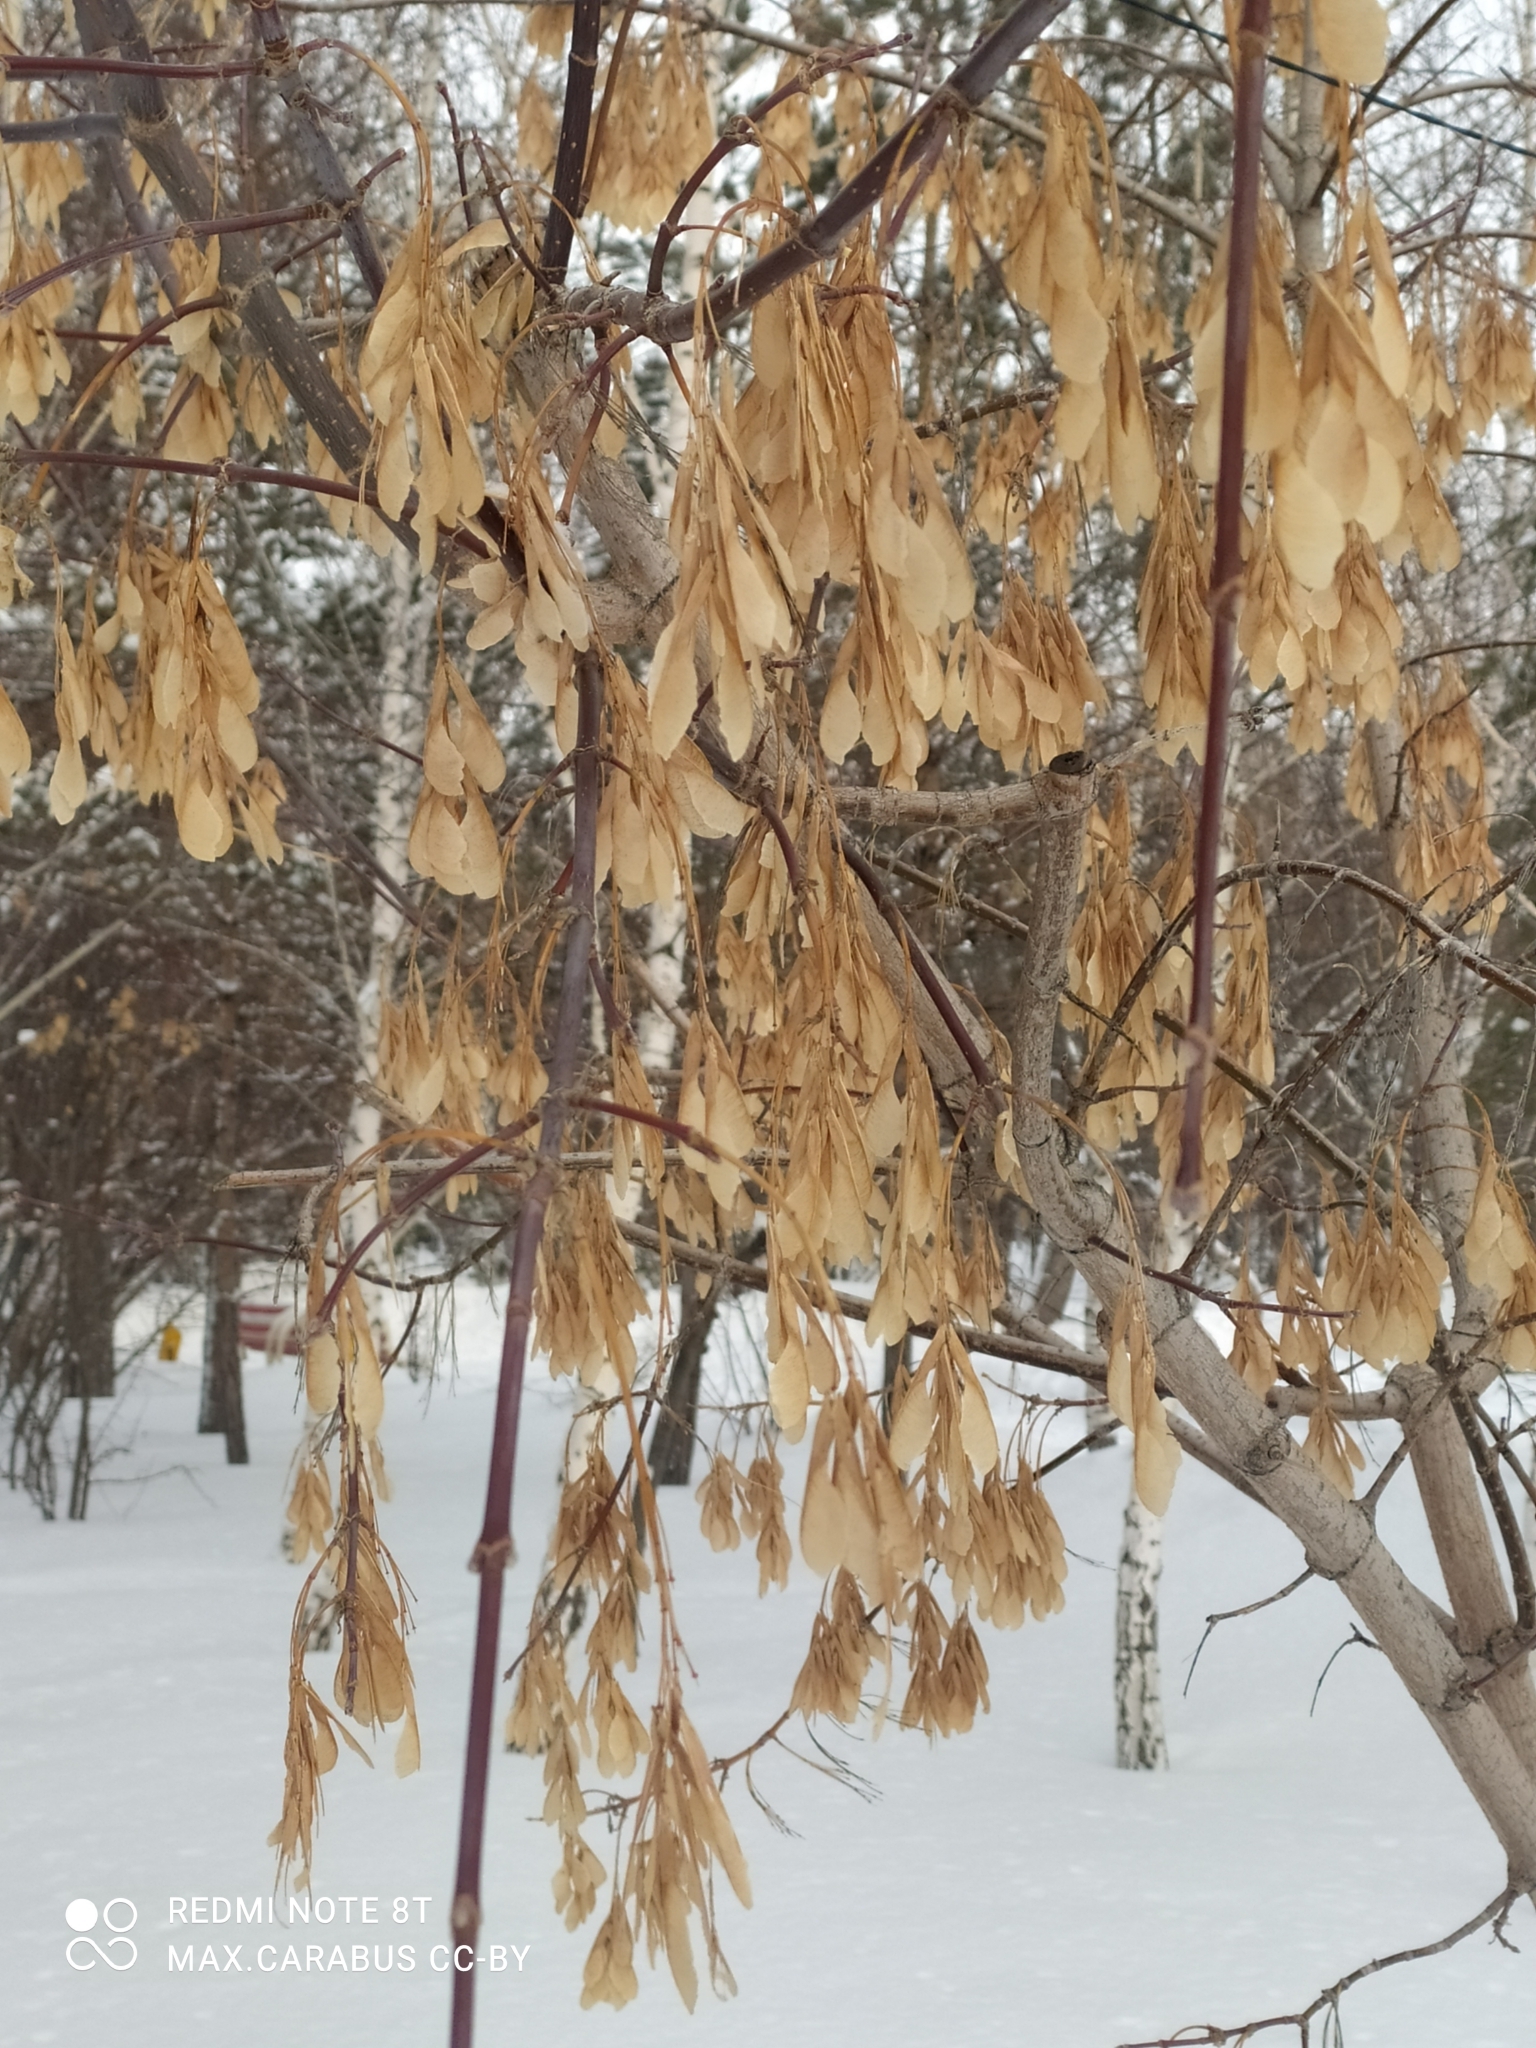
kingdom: Plantae
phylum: Tracheophyta
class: Magnoliopsida
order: Sapindales
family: Sapindaceae
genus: Acer
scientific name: Acer negundo
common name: Ashleaf maple
